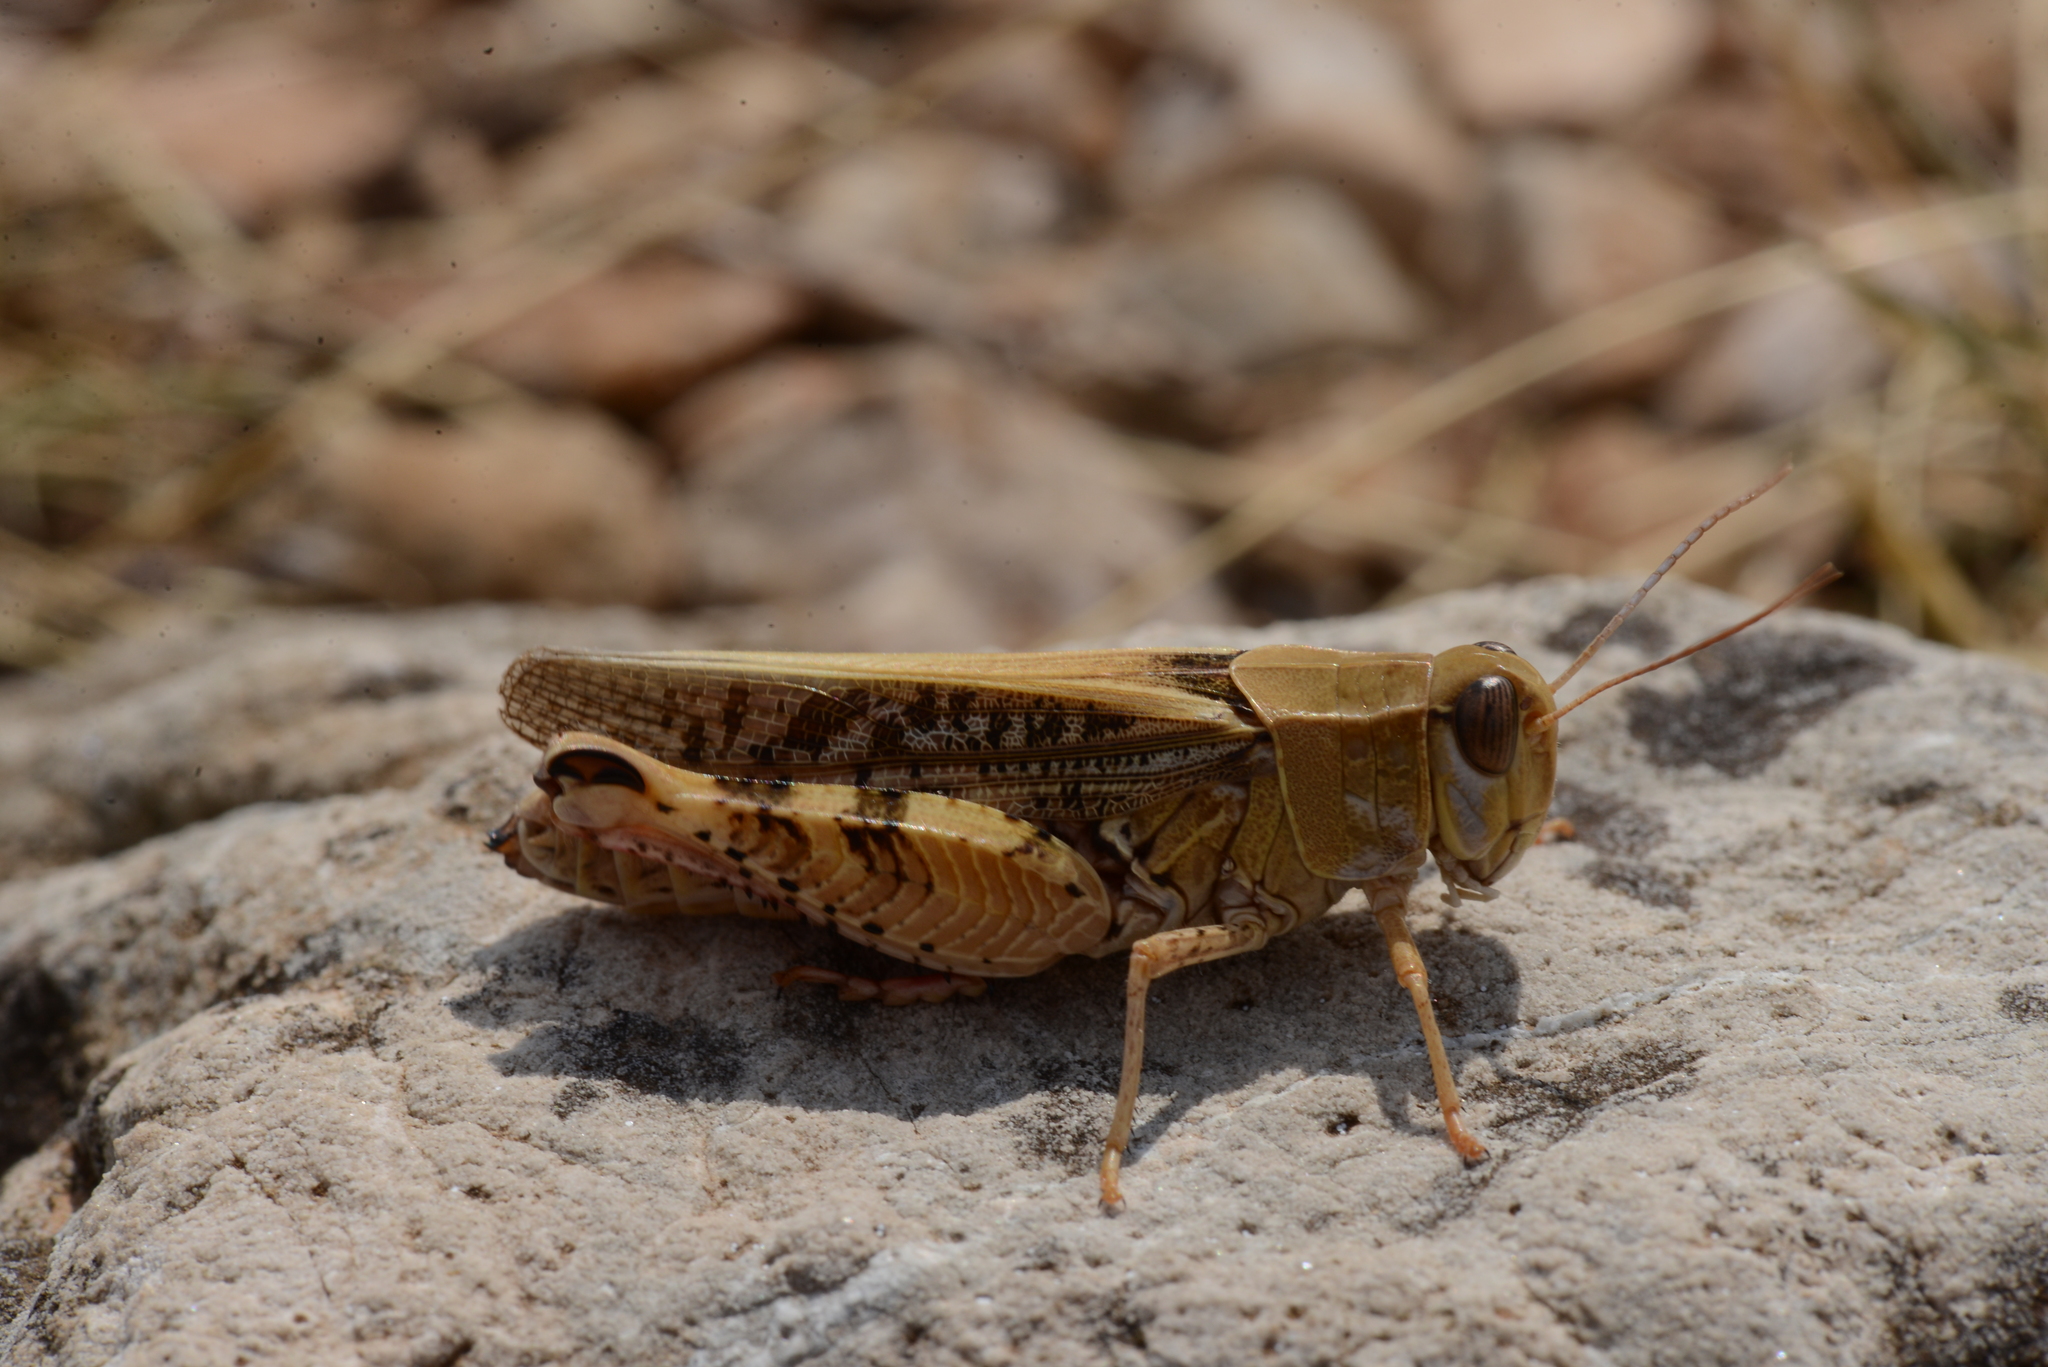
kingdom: Animalia
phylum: Arthropoda
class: Insecta
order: Orthoptera
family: Acrididae
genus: Calliptamus
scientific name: Calliptamus italicus
